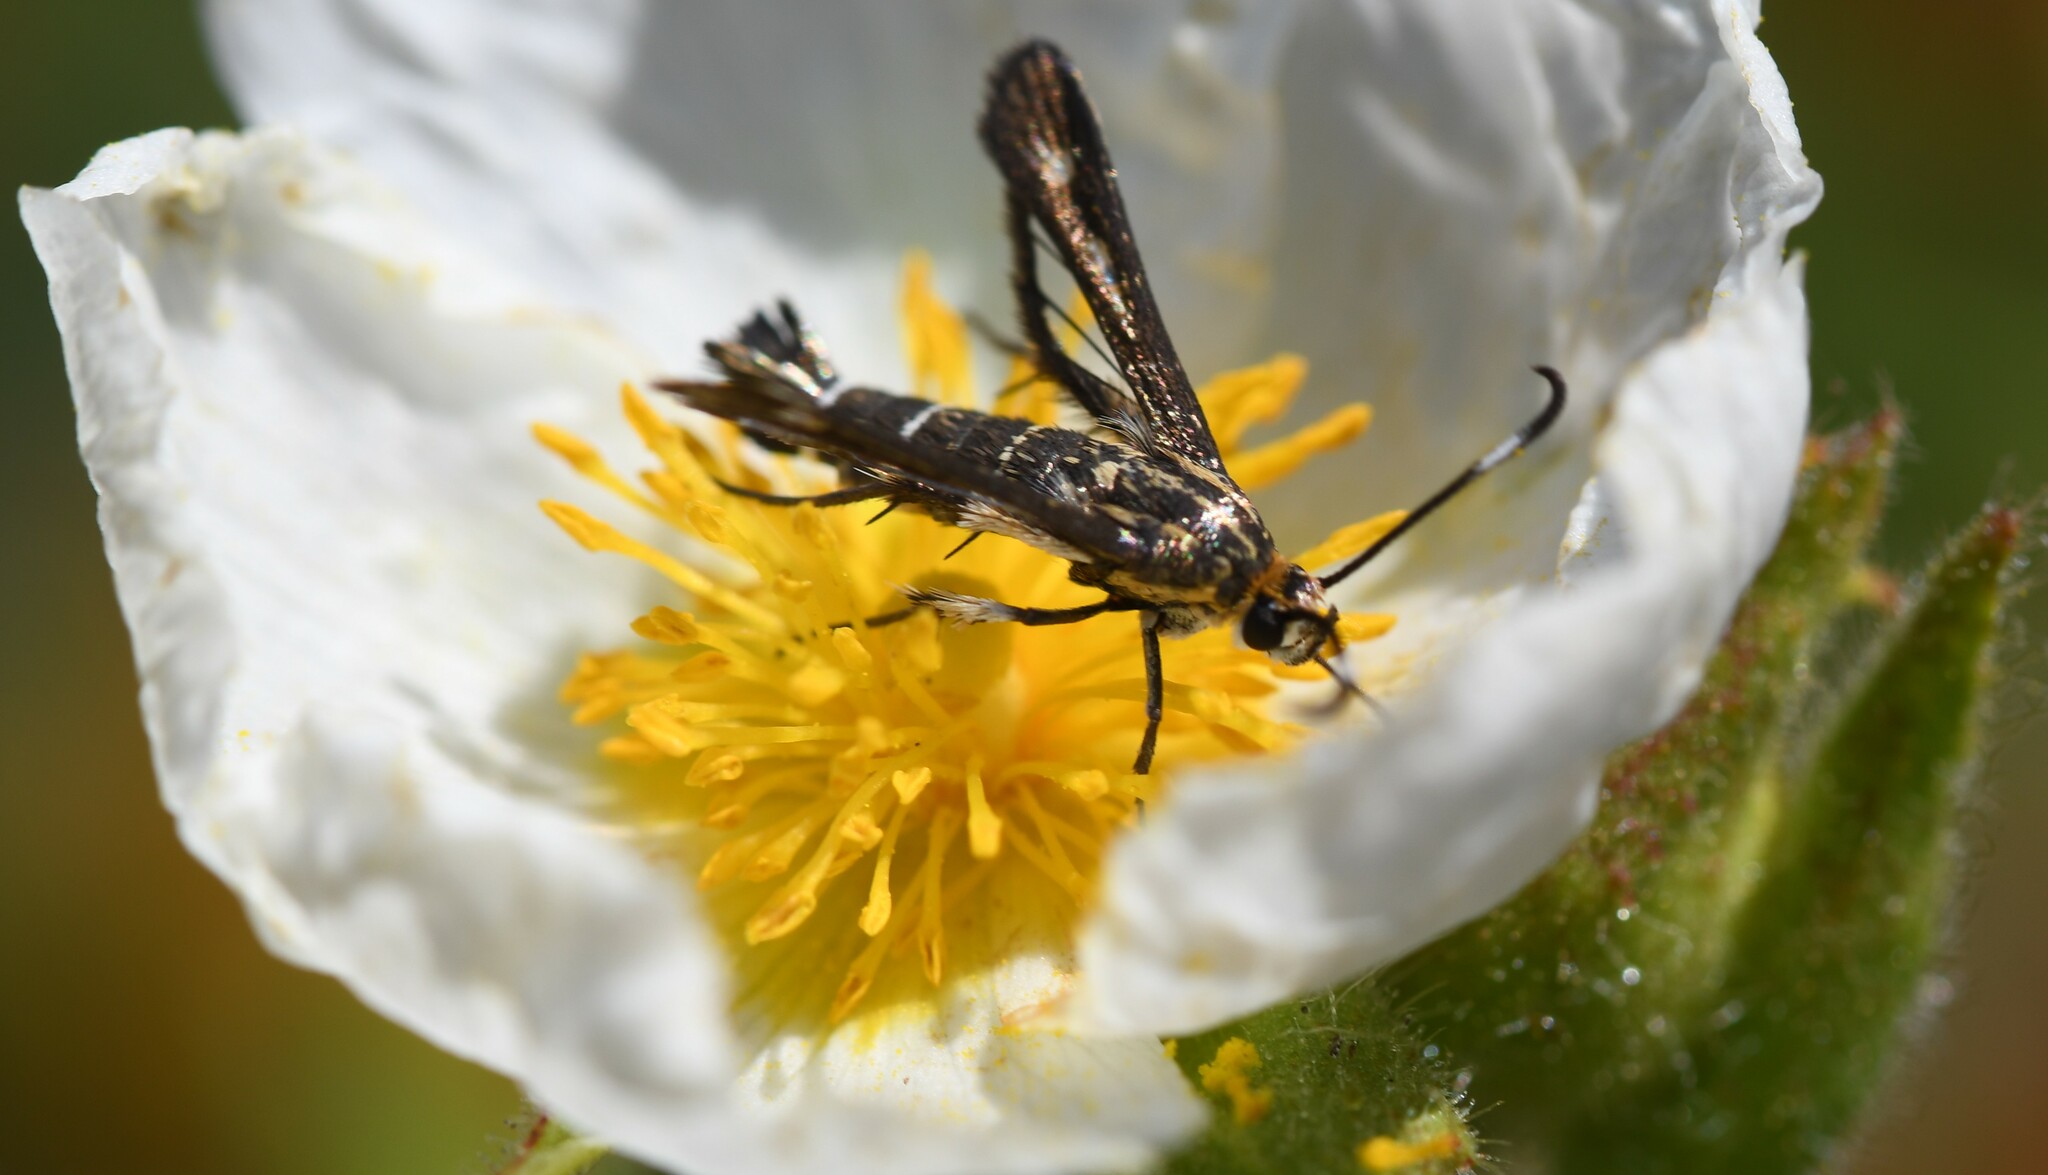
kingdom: Animalia
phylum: Arthropoda
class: Insecta
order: Lepidoptera
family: Sesiidae
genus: Pyropteron
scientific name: Pyropteron meriaeformis
